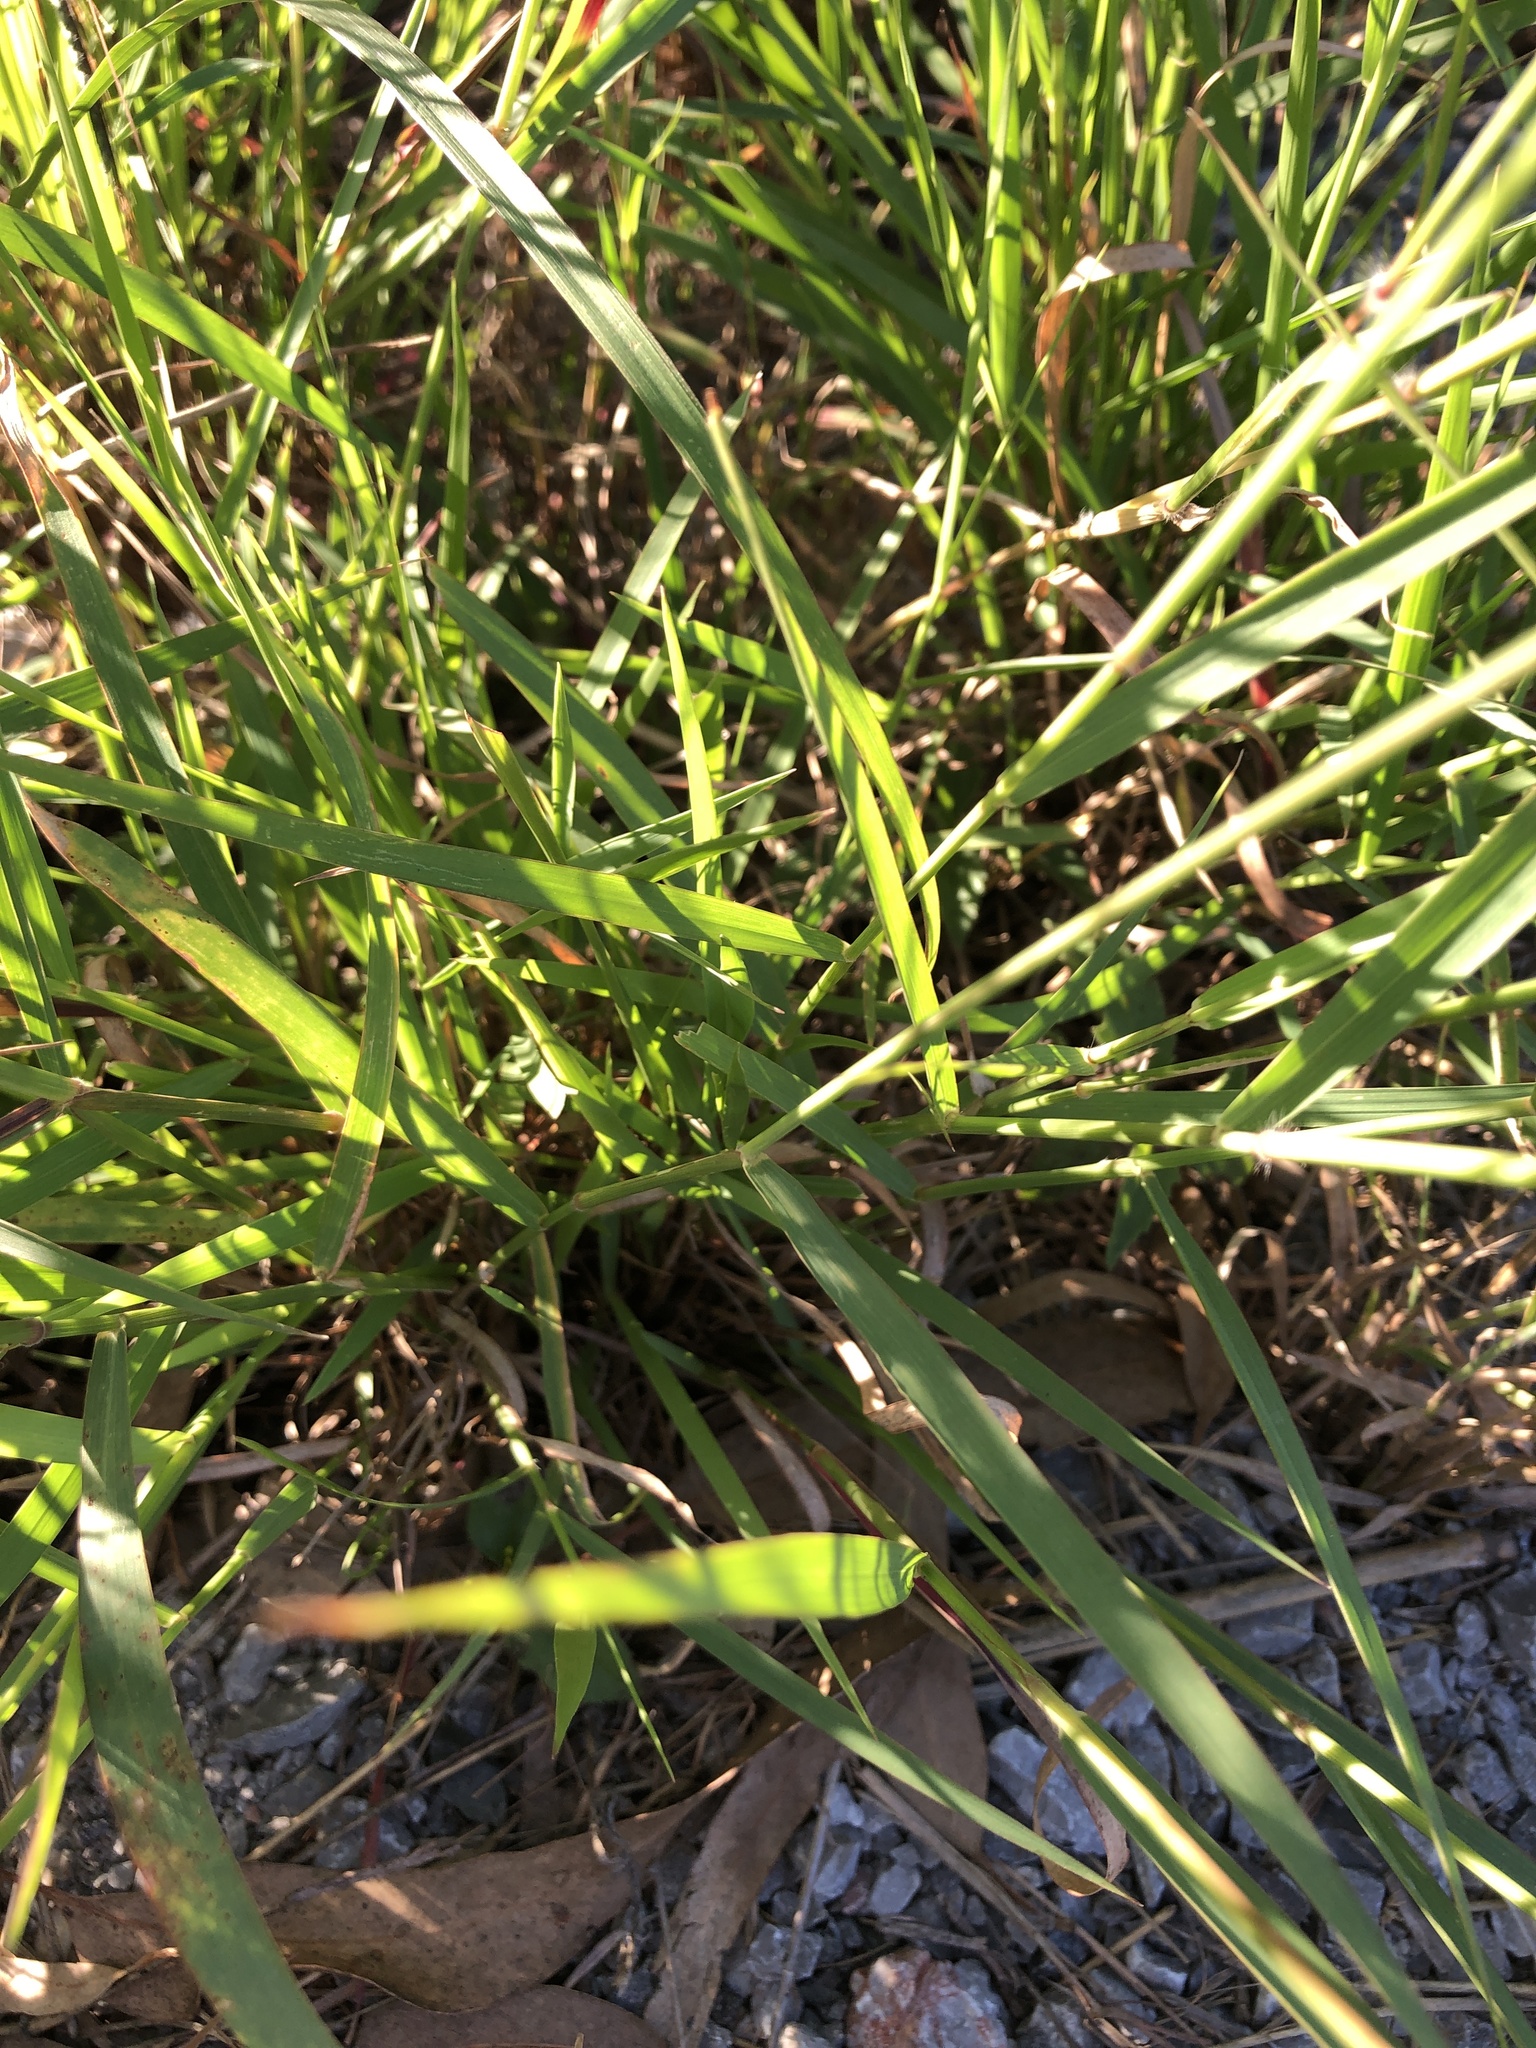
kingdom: Plantae
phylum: Tracheophyta
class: Liliopsida
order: Poales
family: Poaceae
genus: Melinis
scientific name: Melinis repens
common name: Rose natal grass
